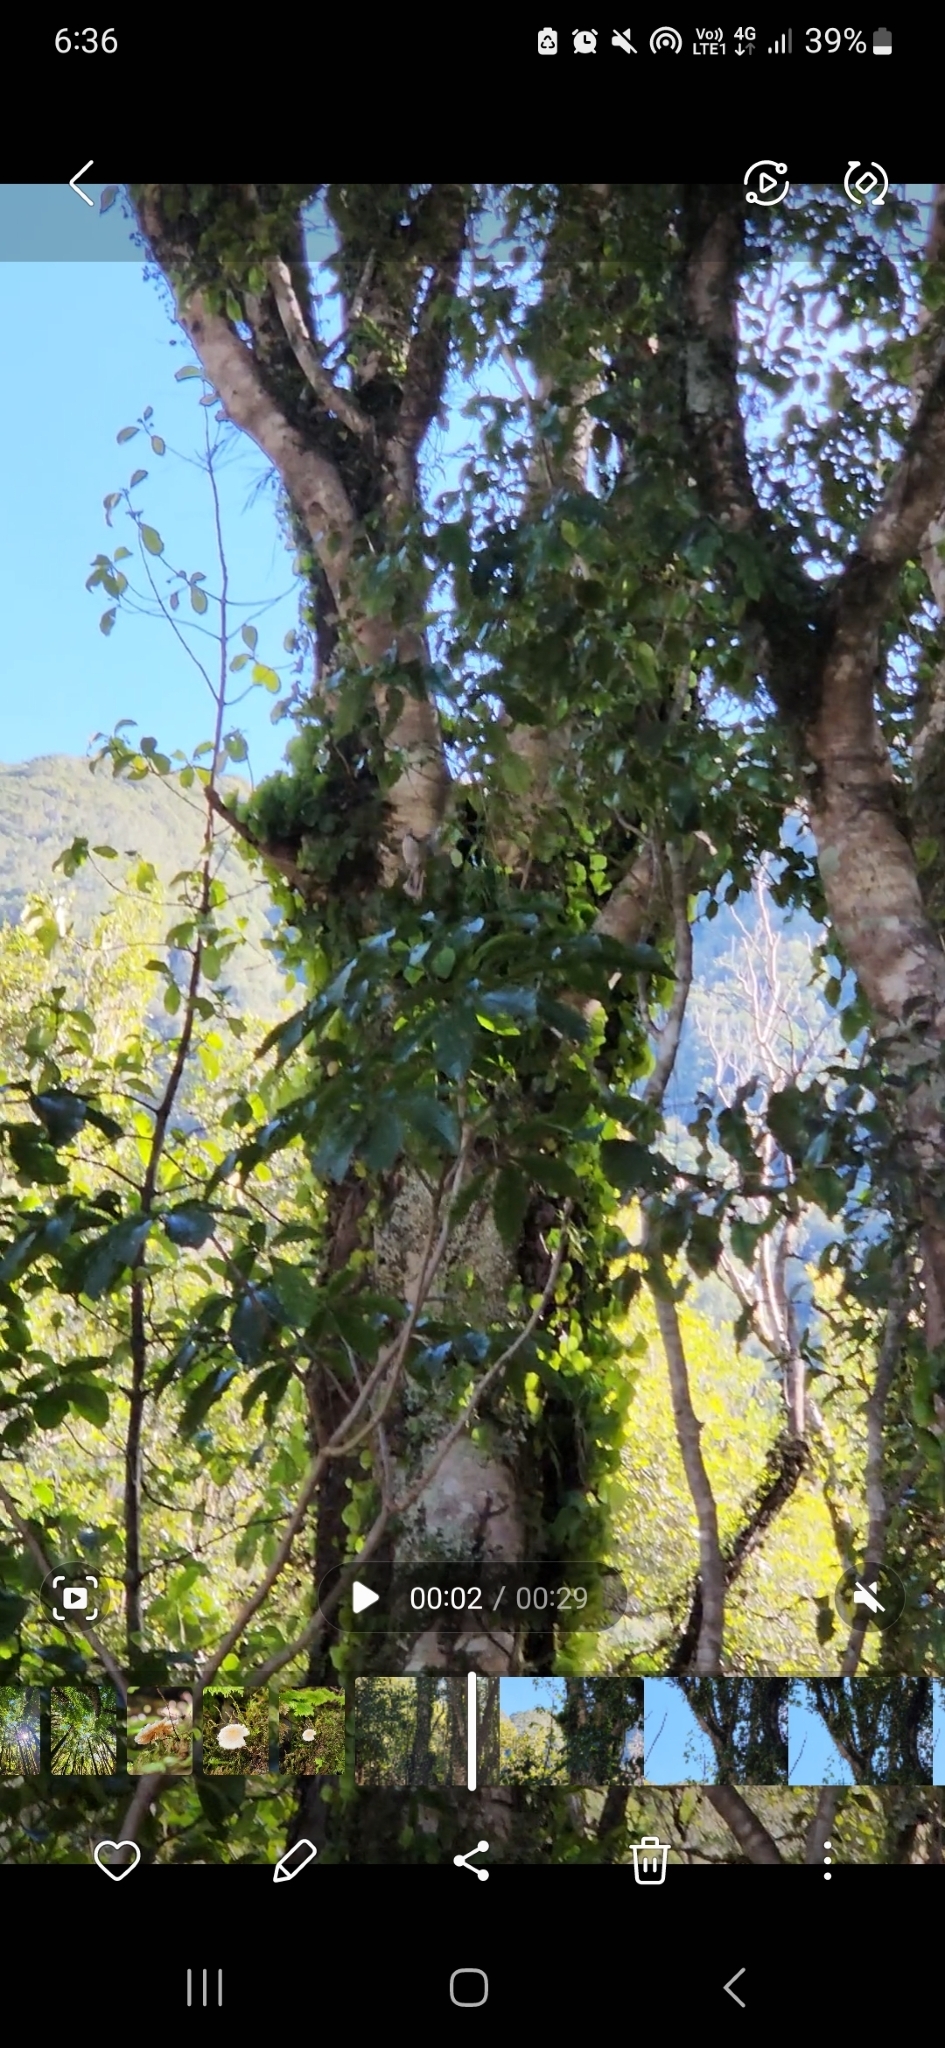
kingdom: Animalia
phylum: Chordata
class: Aves
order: Passeriformes
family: Acanthizidae
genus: Finschia
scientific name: Finschia novaeseelandiae
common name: Pipipi
